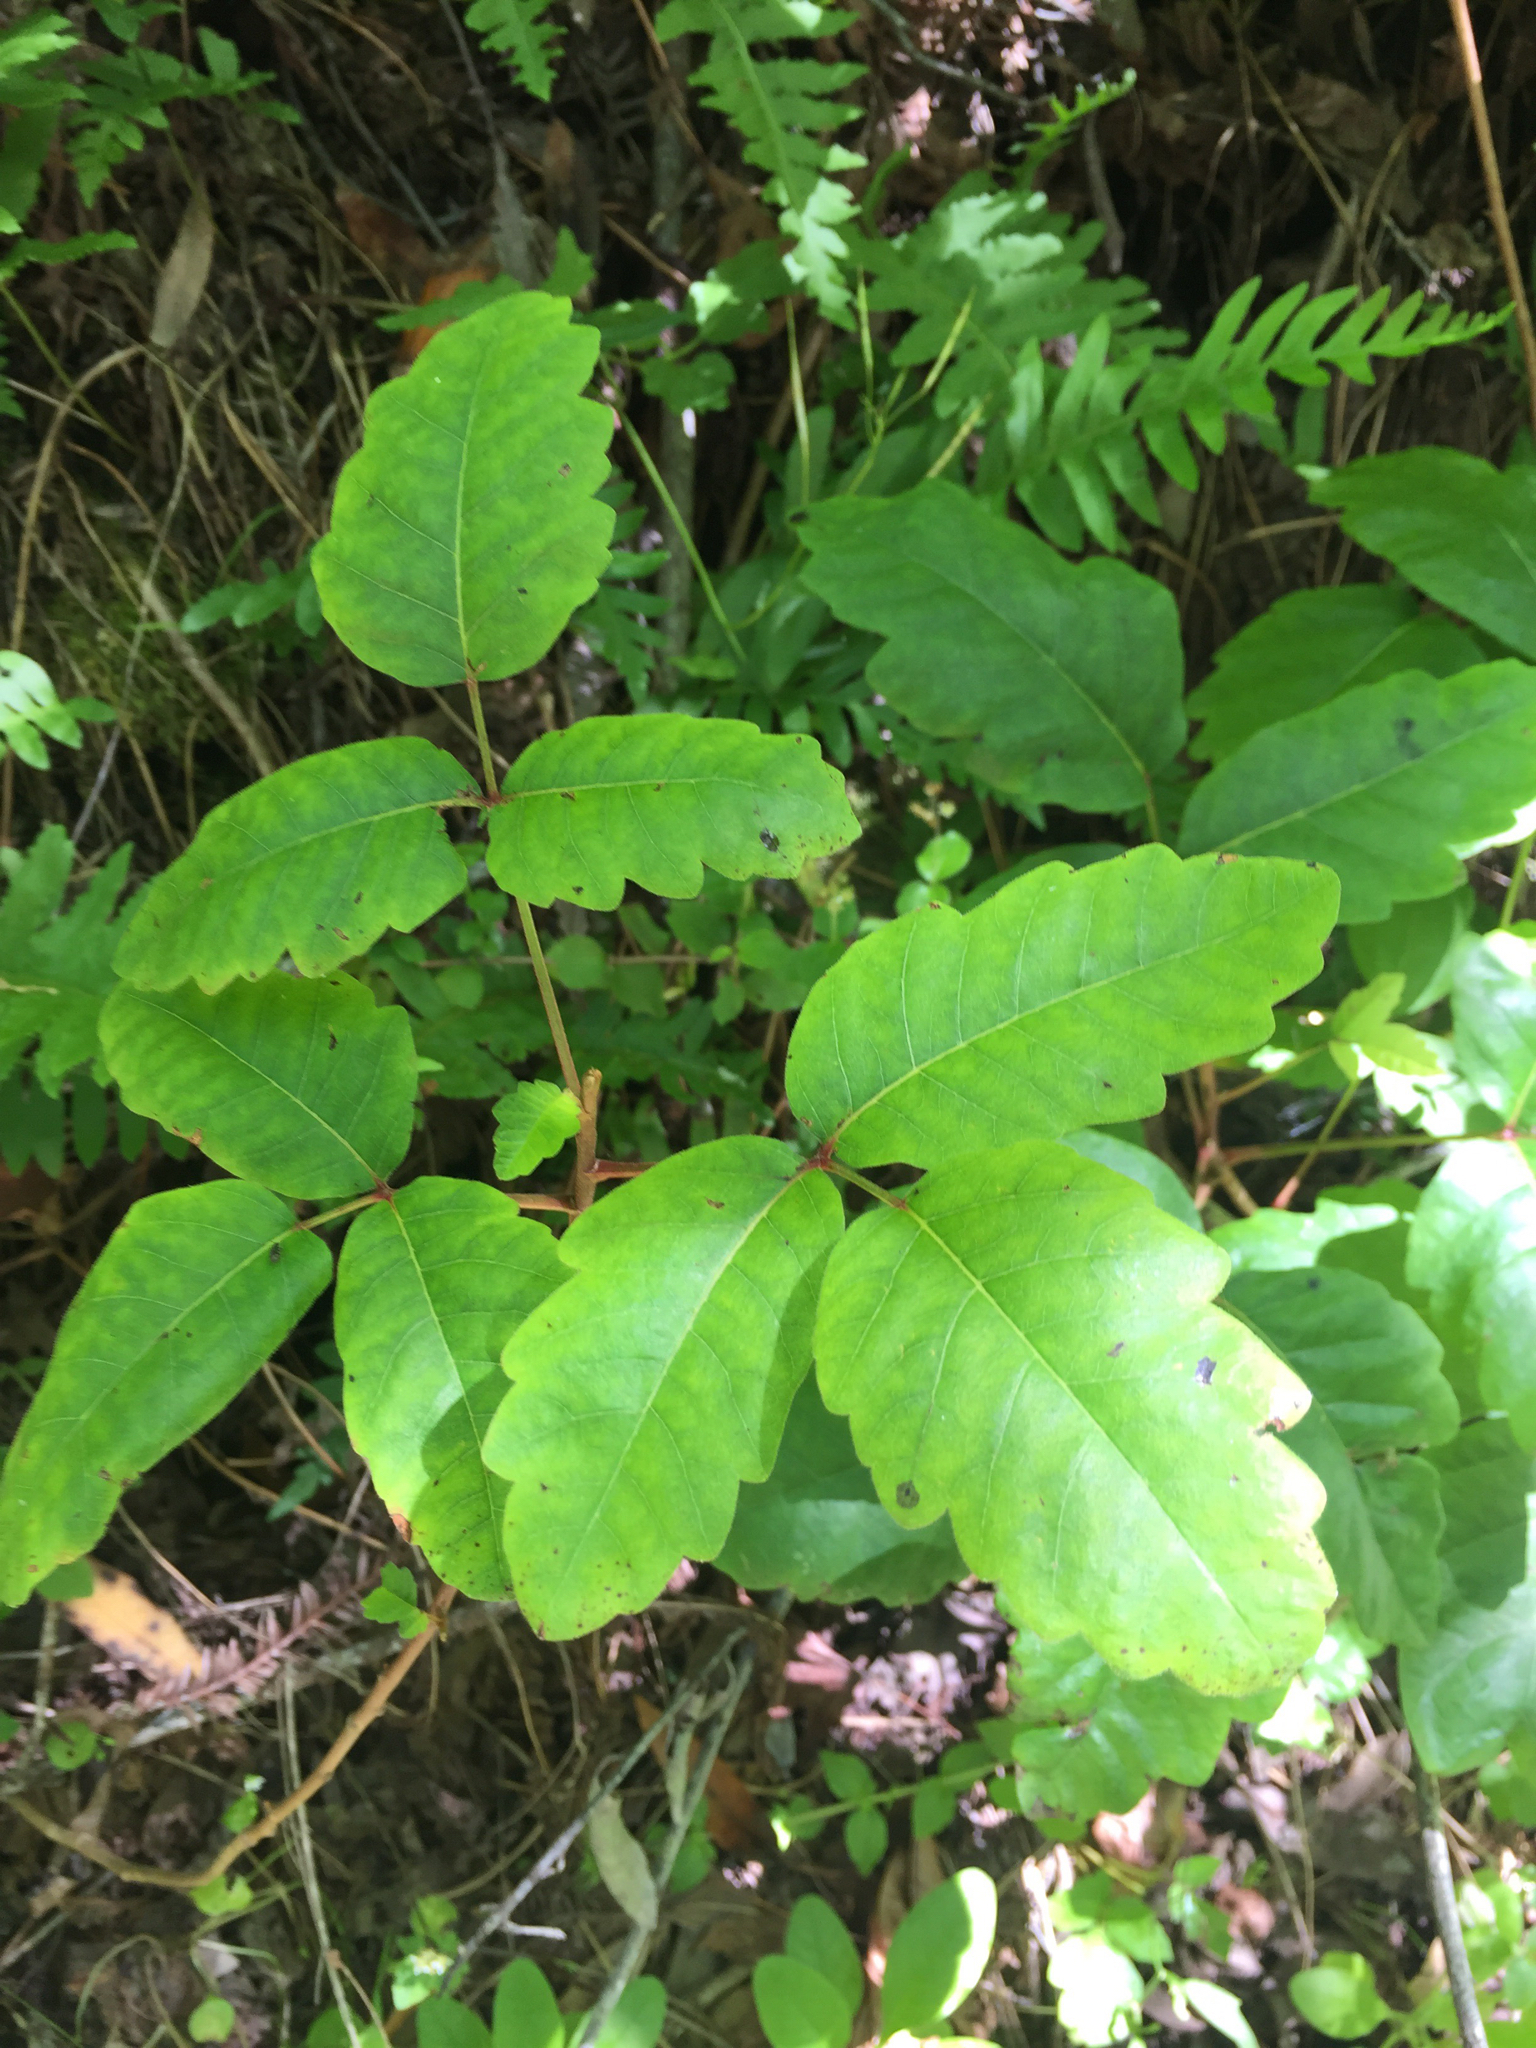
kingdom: Plantae
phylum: Tracheophyta
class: Magnoliopsida
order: Sapindales
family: Anacardiaceae
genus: Toxicodendron
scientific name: Toxicodendron diversilobum
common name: Pacific poison-oak
